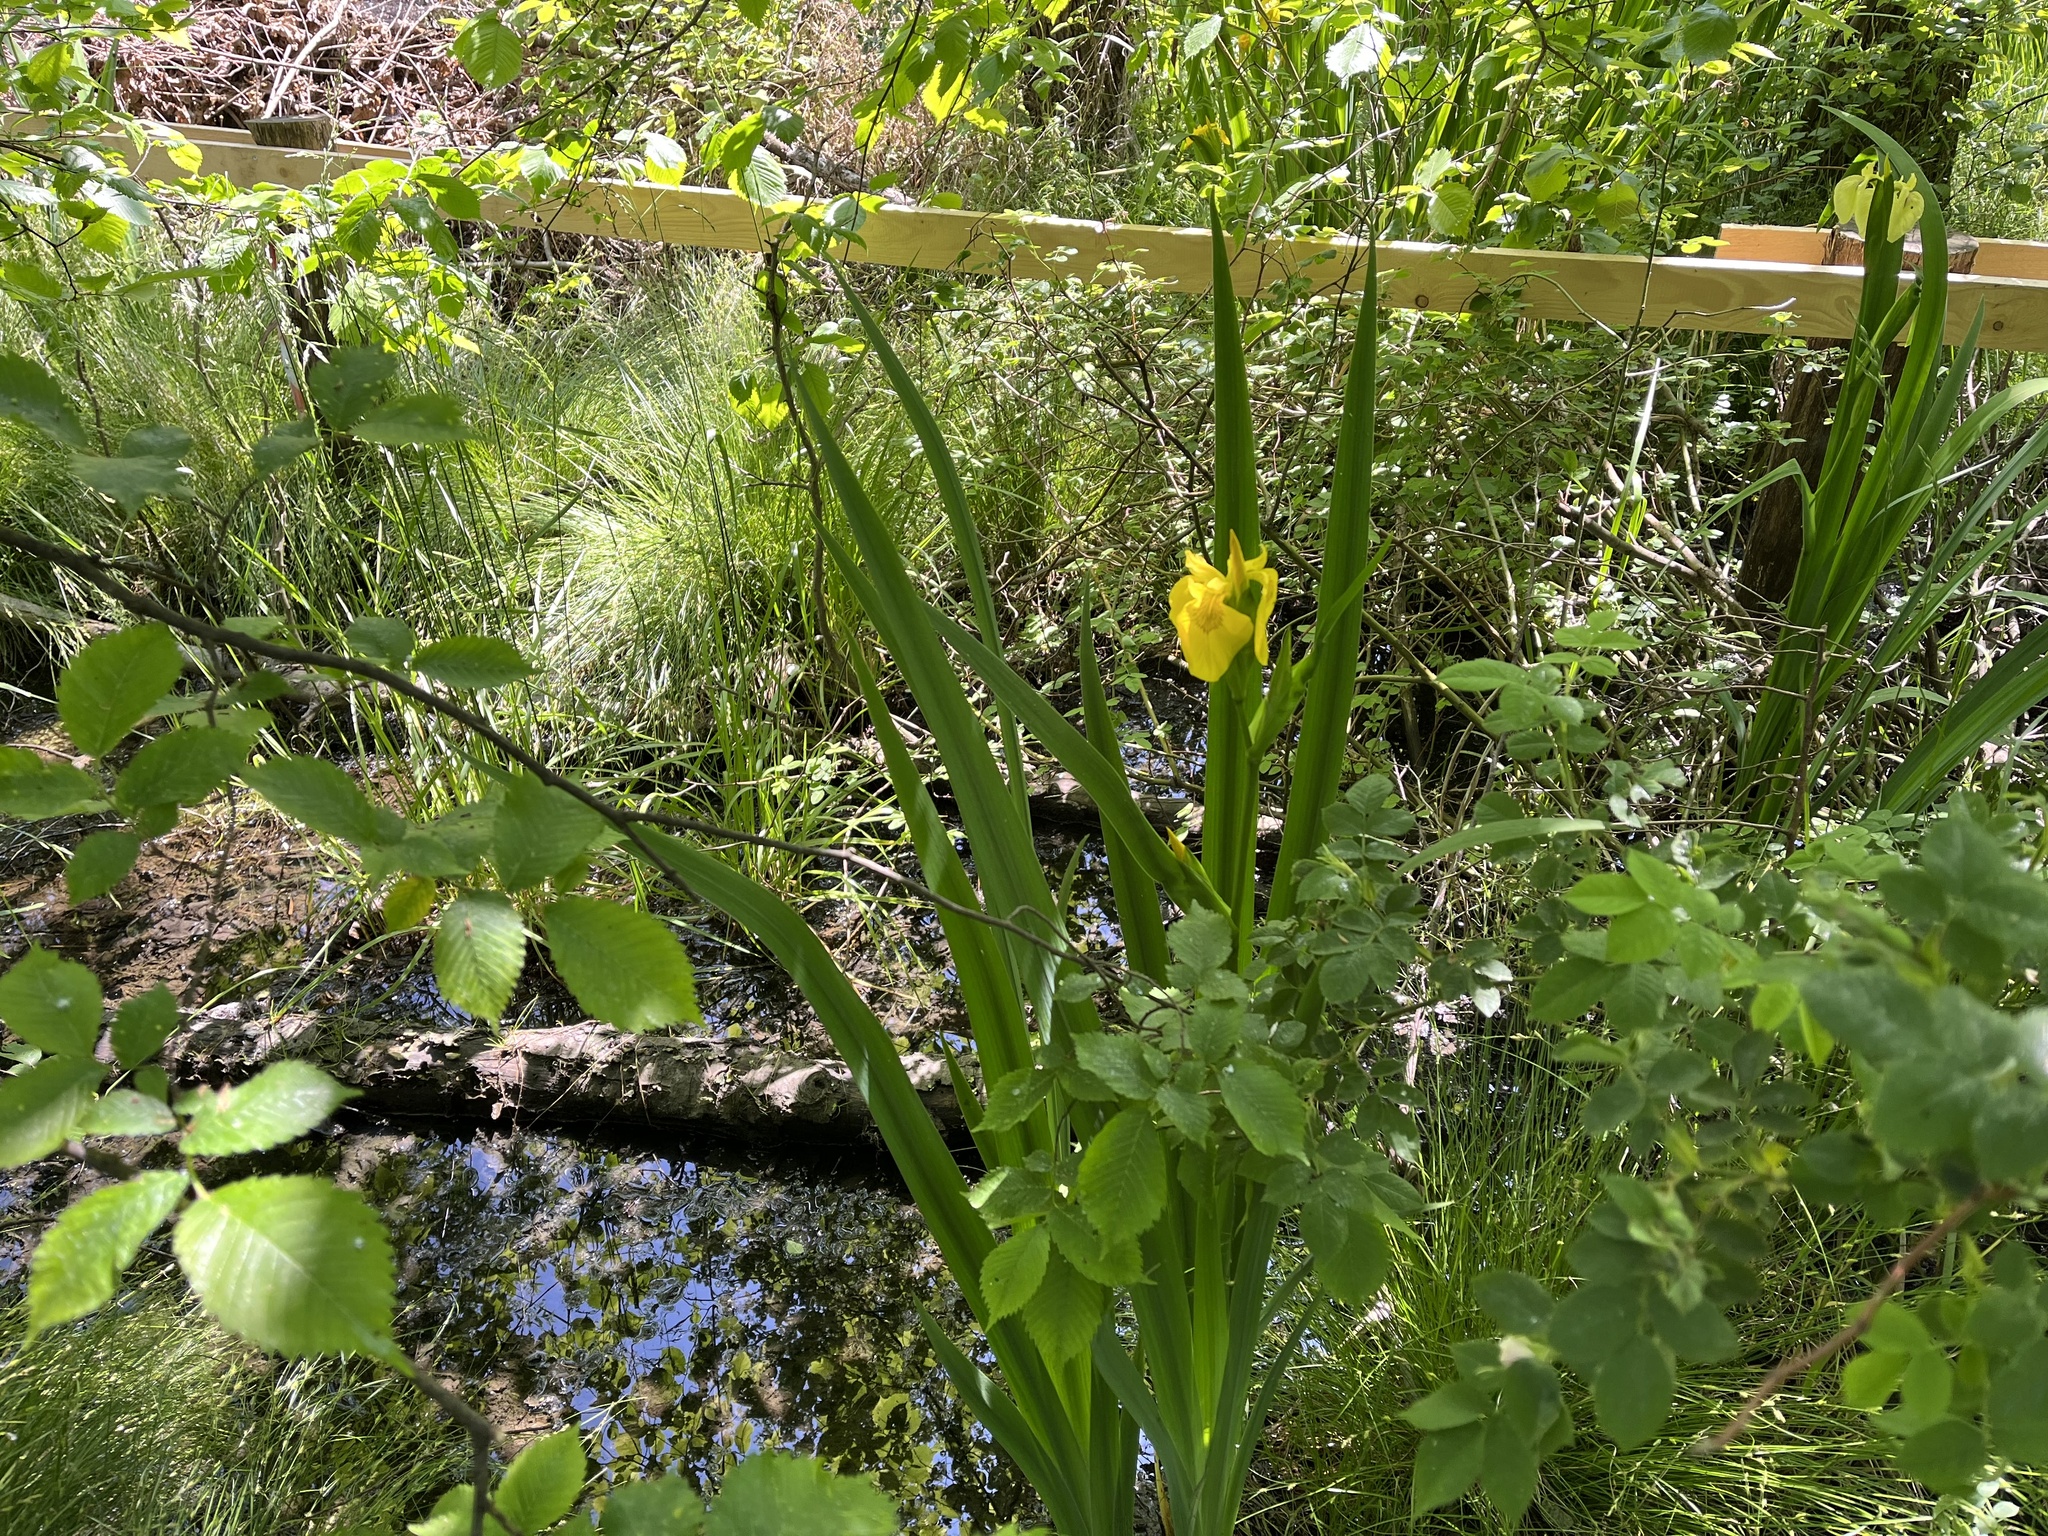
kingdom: Plantae
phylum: Tracheophyta
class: Liliopsida
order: Asparagales
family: Iridaceae
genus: Iris
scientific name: Iris pseudacorus
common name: Yellow flag
